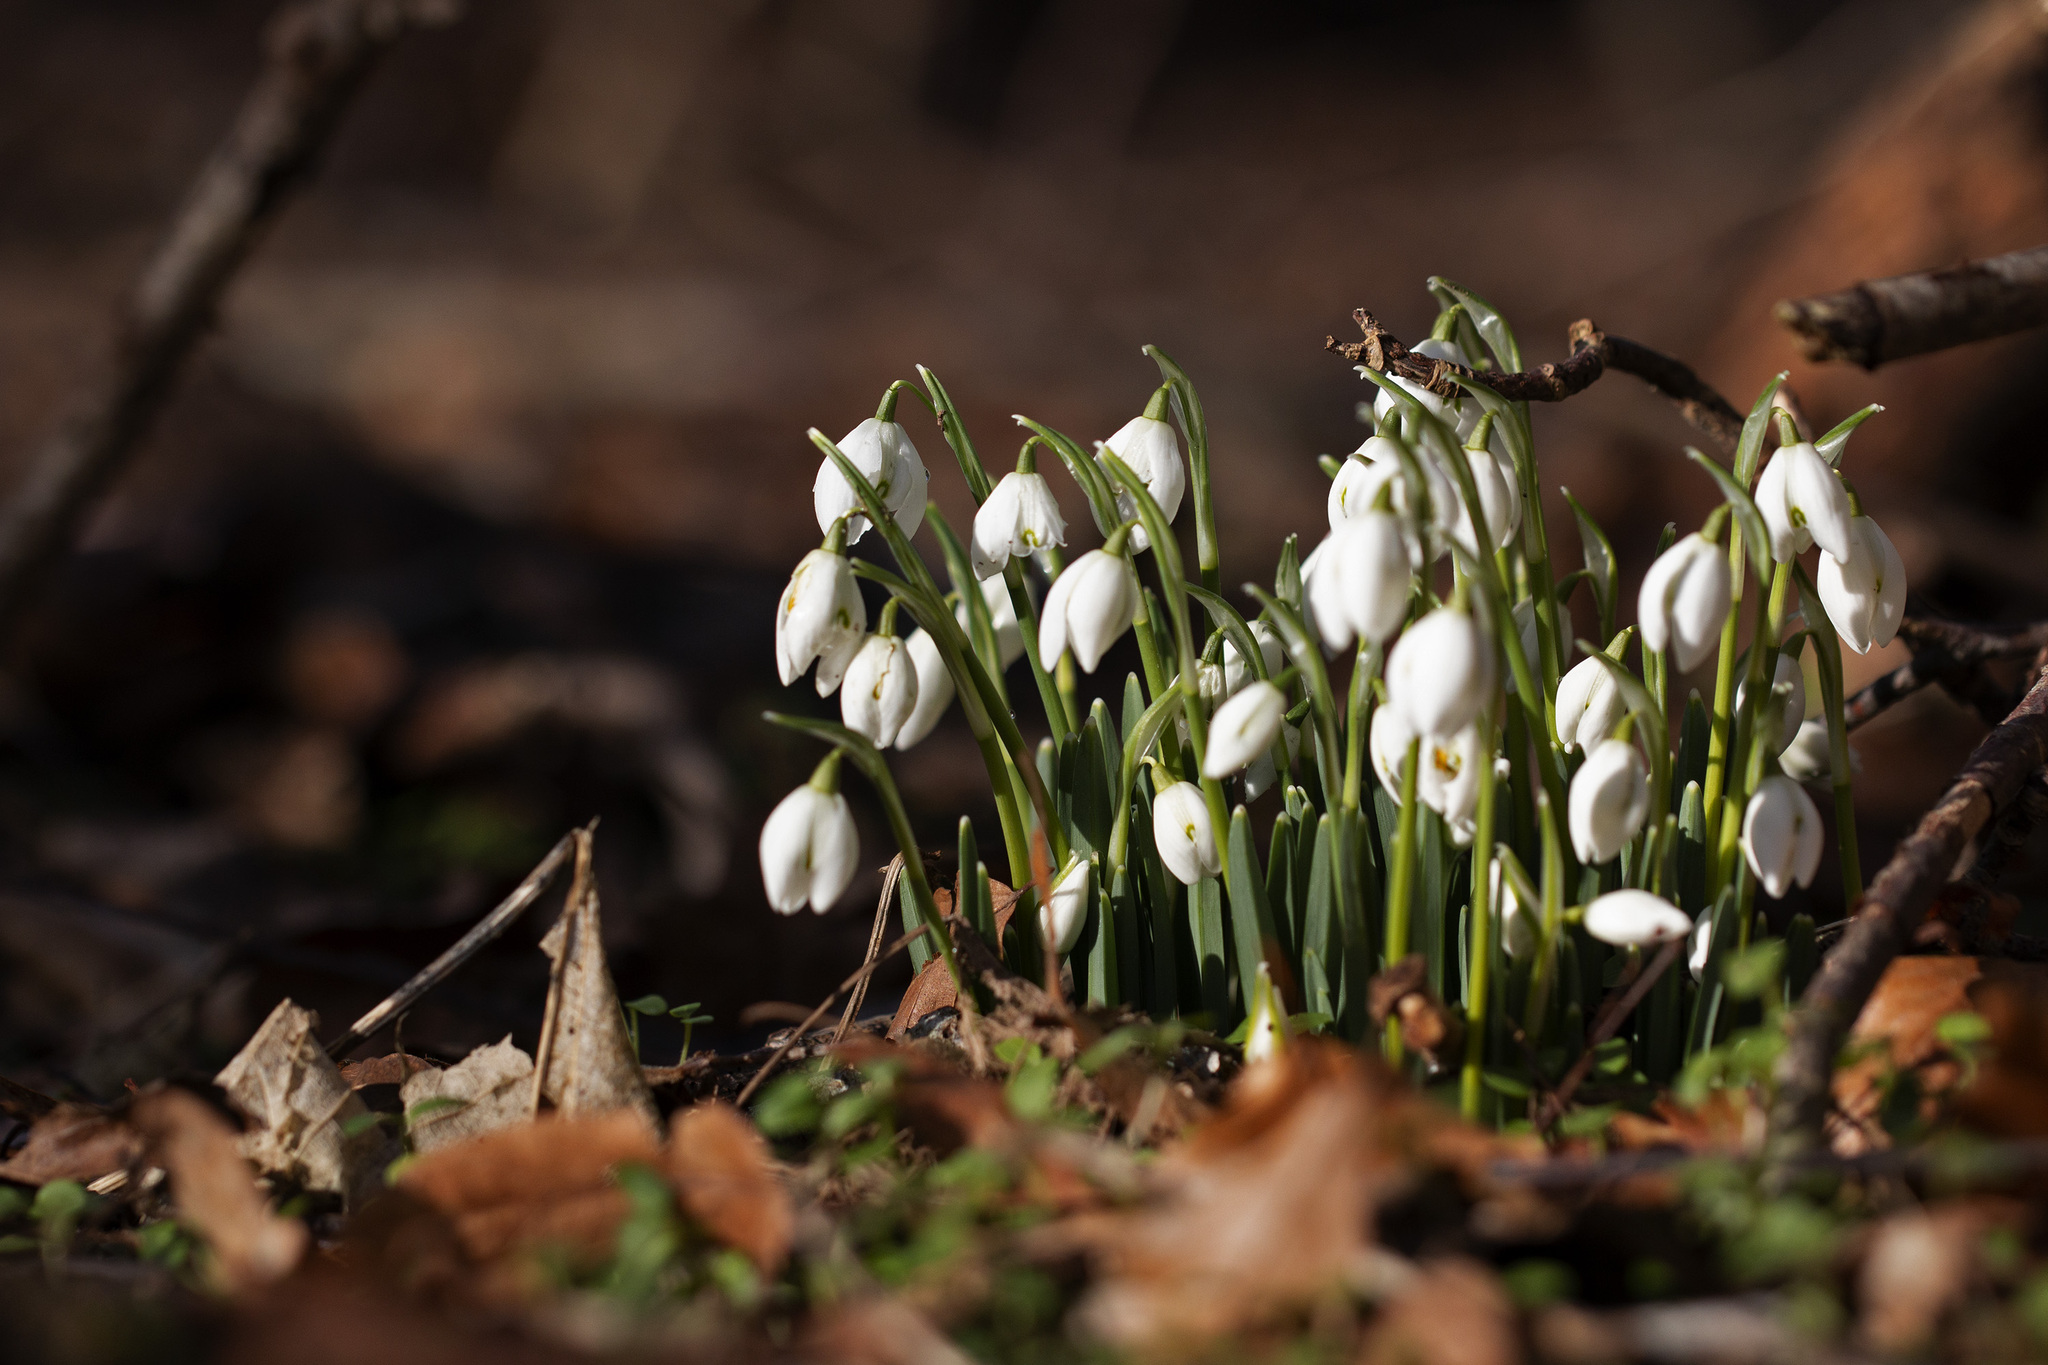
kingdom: Plantae
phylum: Tracheophyta
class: Liliopsida
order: Asparagales
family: Amaryllidaceae
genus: Galanthus
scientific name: Galanthus nivalis
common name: Snowdrop
